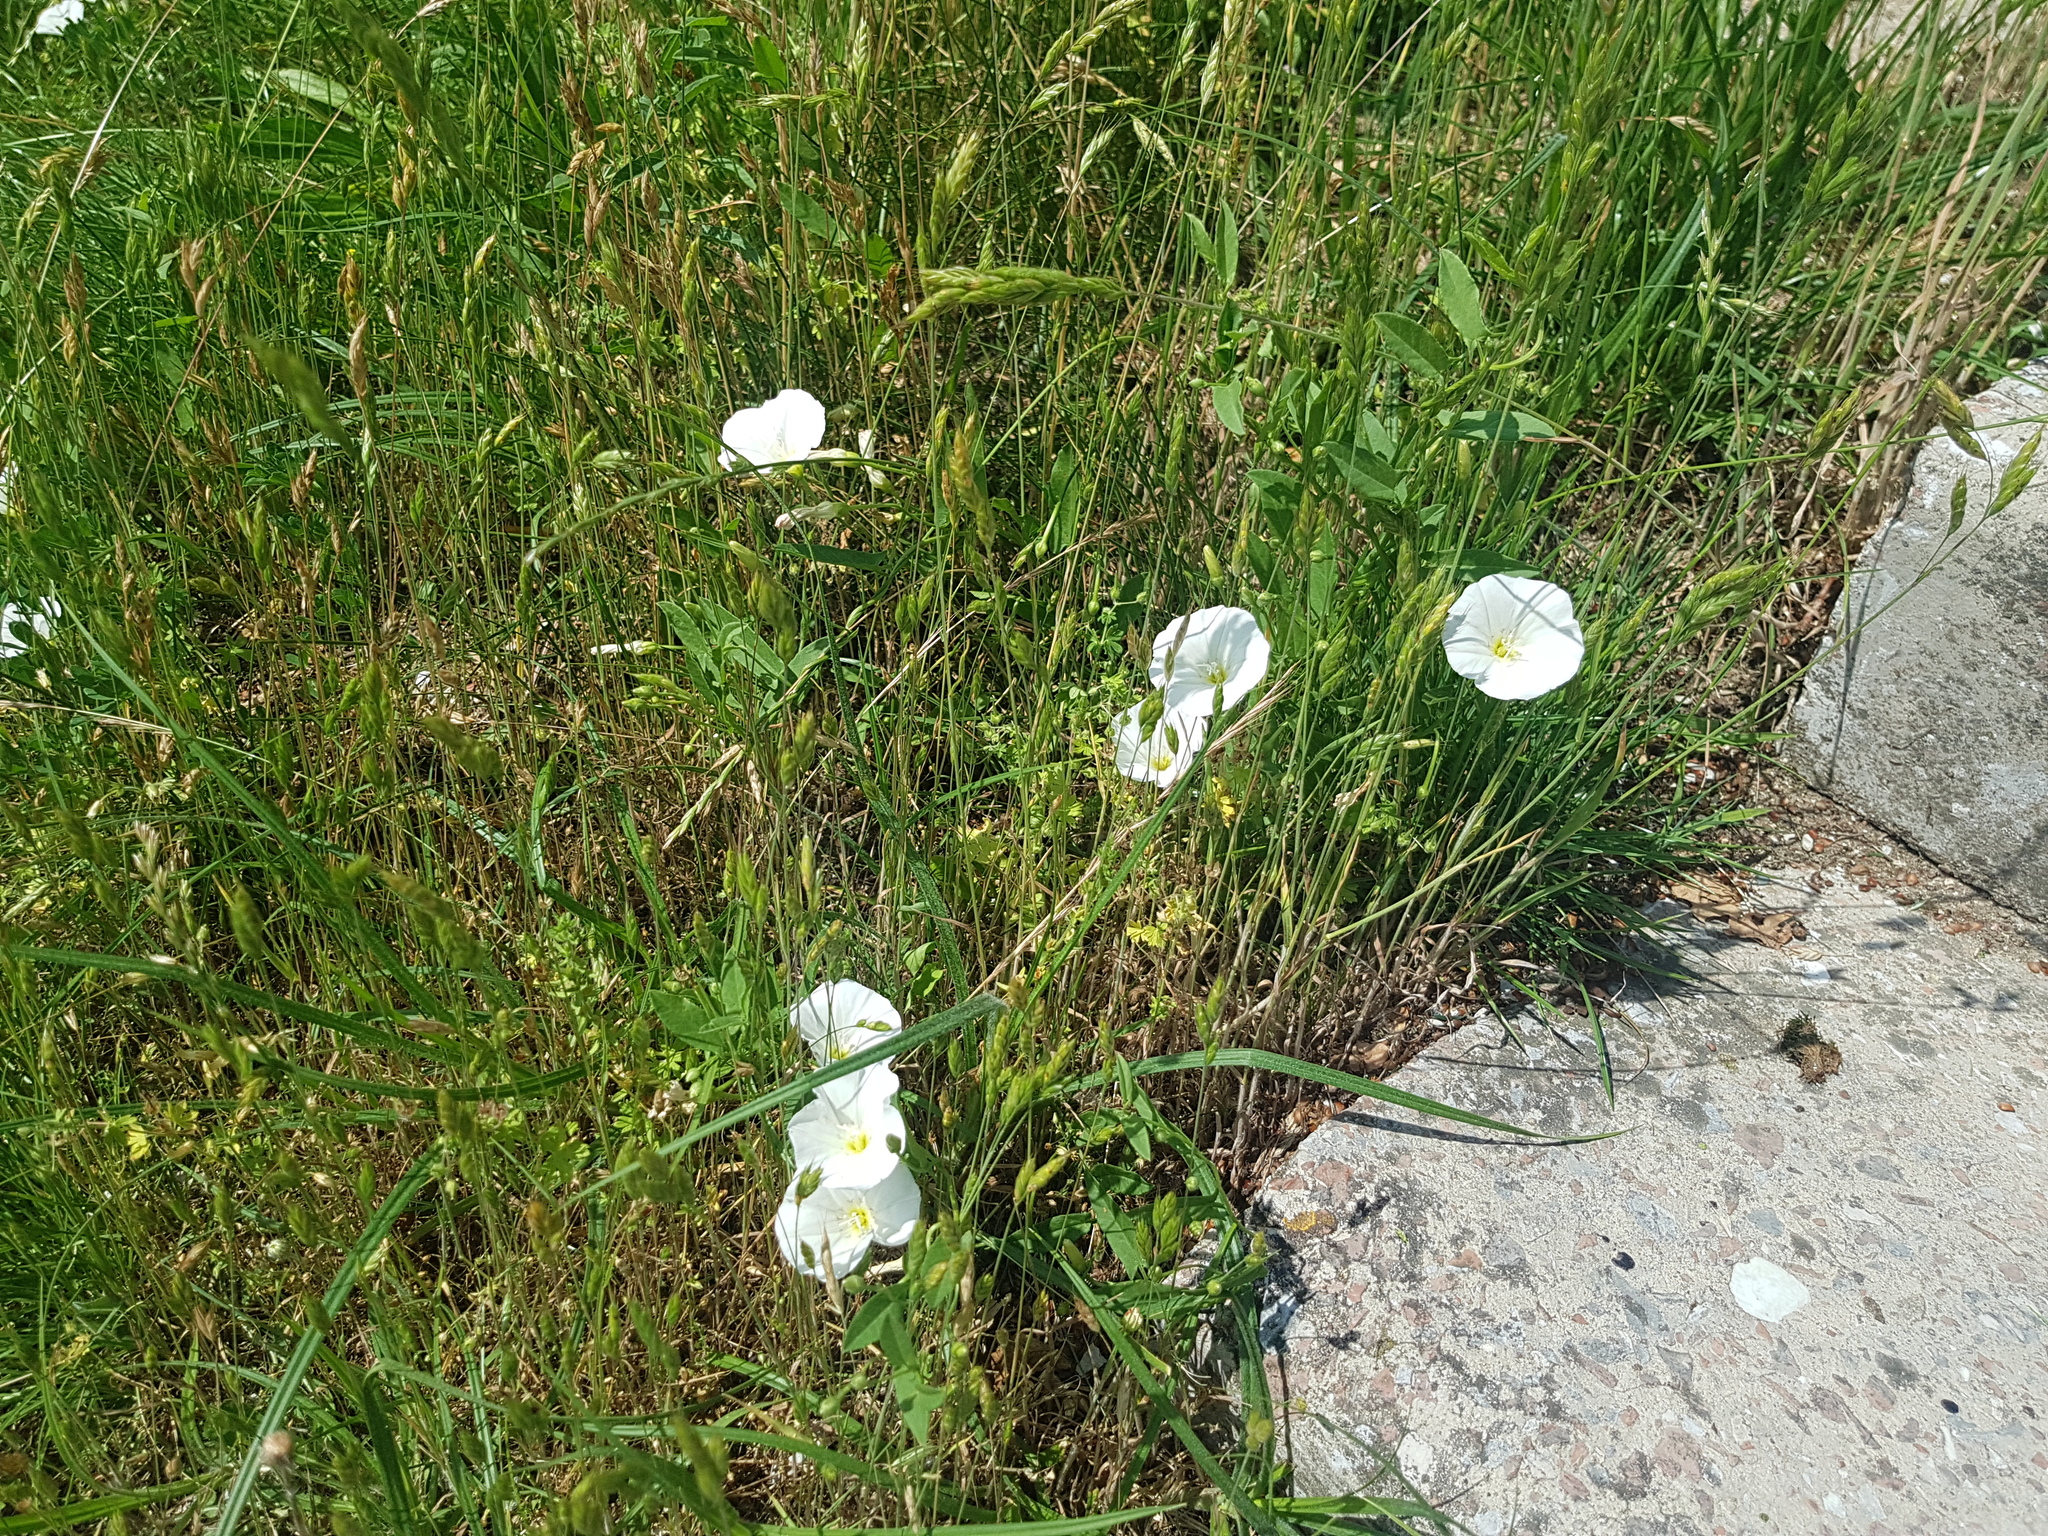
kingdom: Plantae
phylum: Tracheophyta
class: Magnoliopsida
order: Solanales
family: Convolvulaceae
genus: Convolvulus
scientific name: Convolvulus arvensis
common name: Field bindweed
